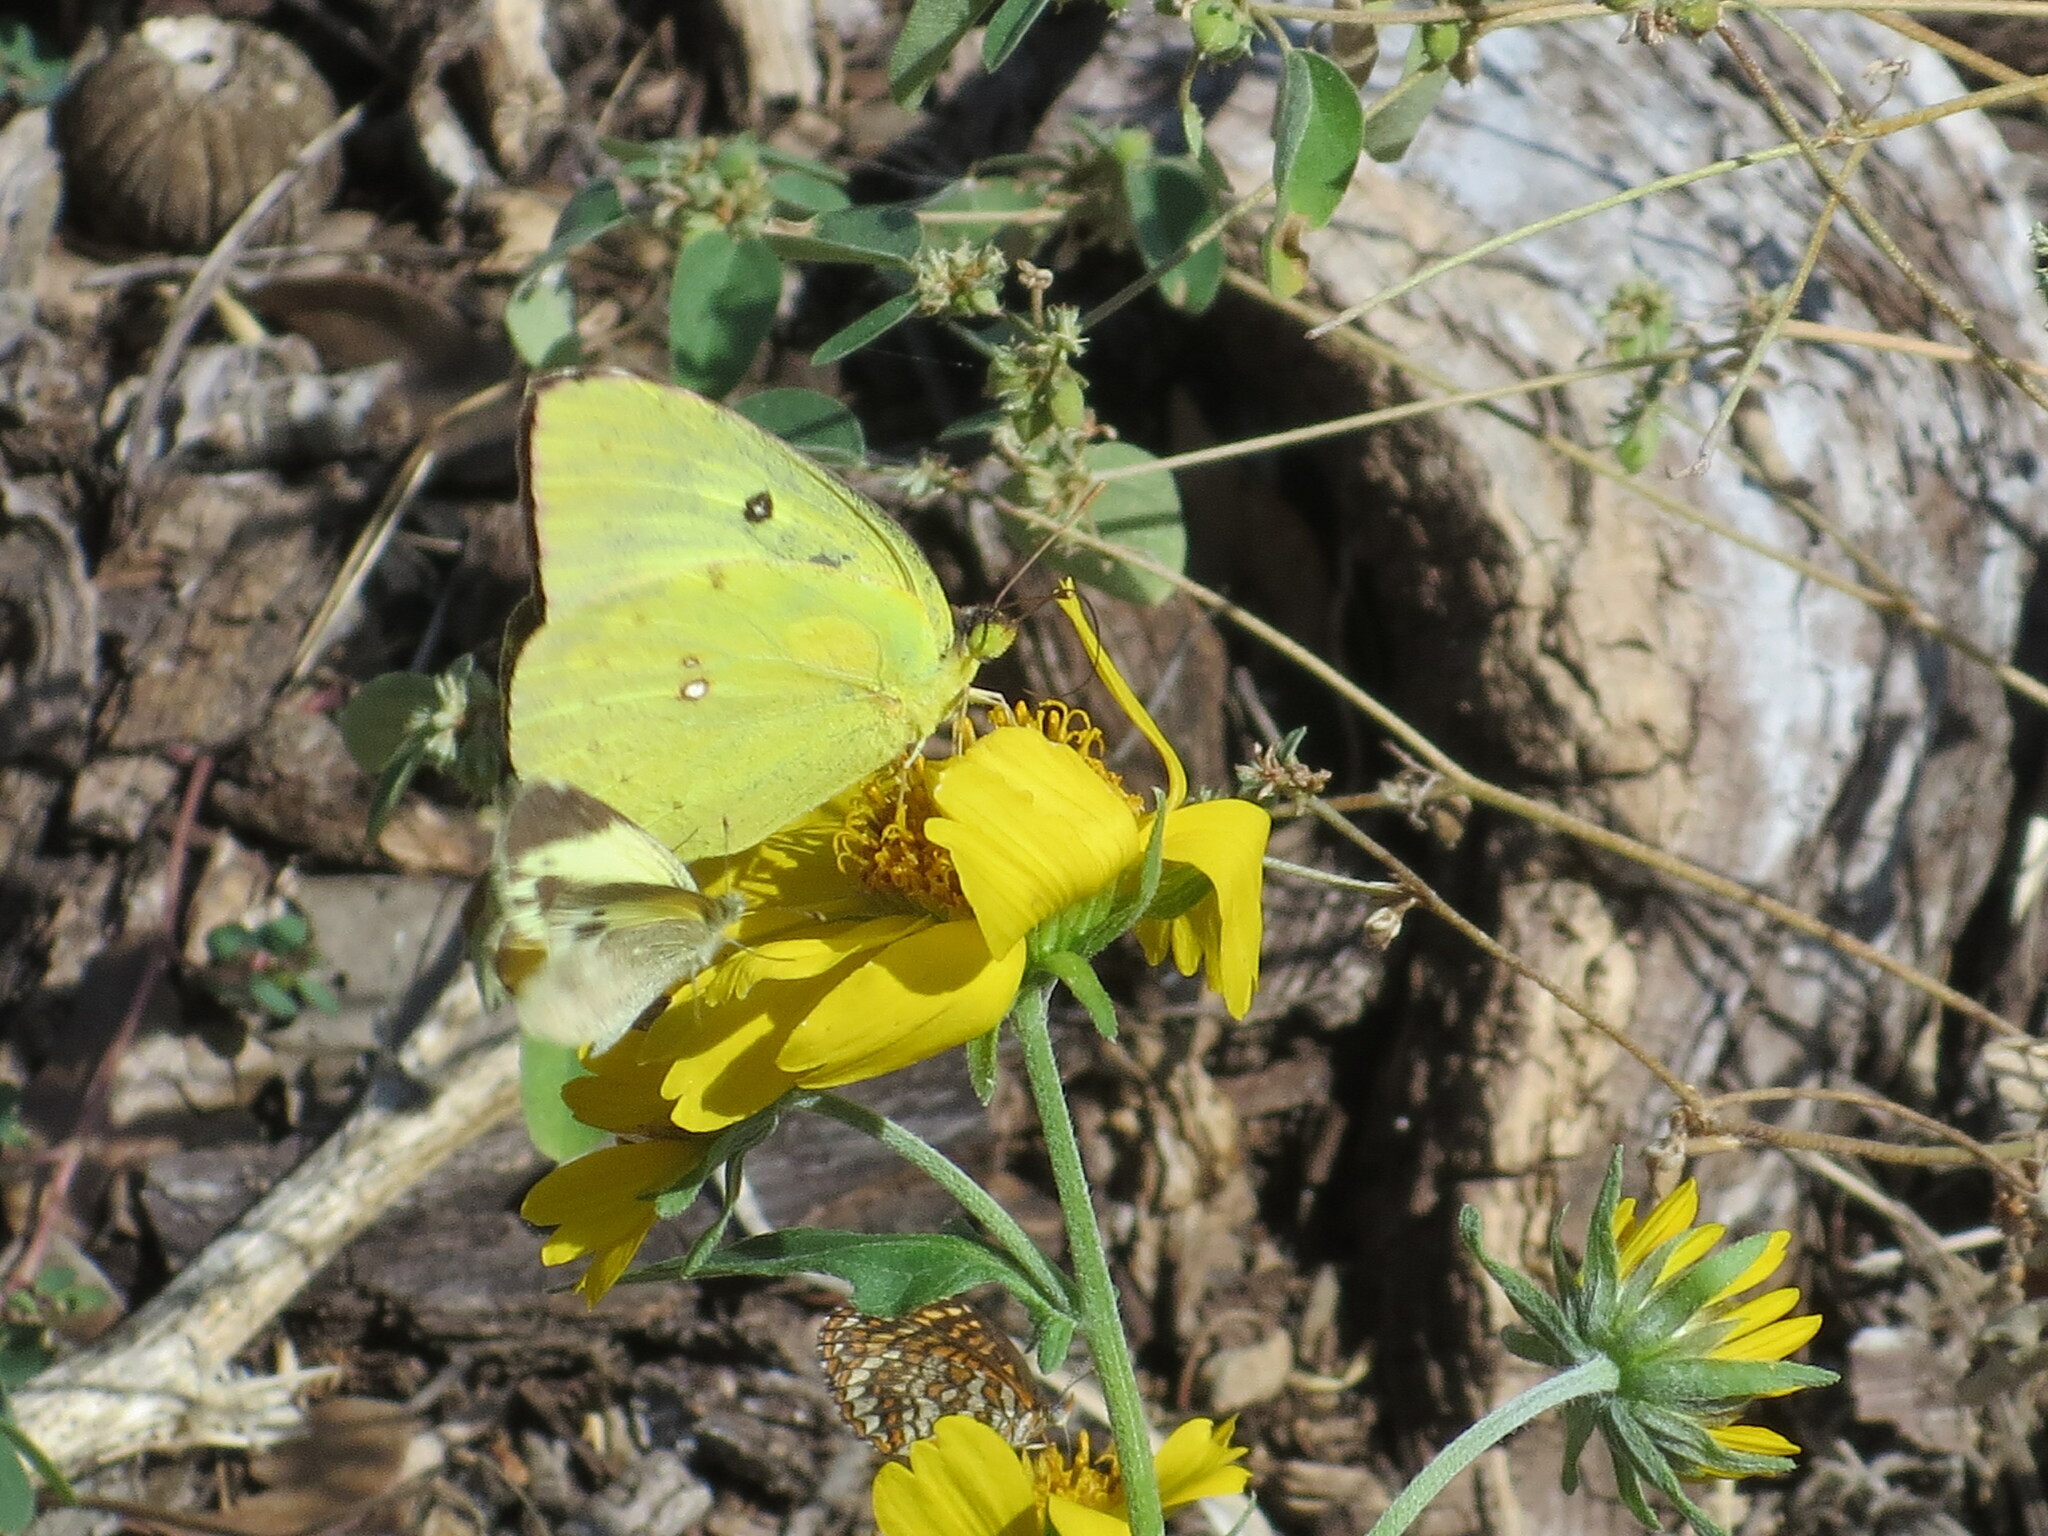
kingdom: Animalia
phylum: Arthropoda
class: Insecta
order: Lepidoptera
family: Pieridae
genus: Zerene
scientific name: Zerene cesonia
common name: Southern dogface
